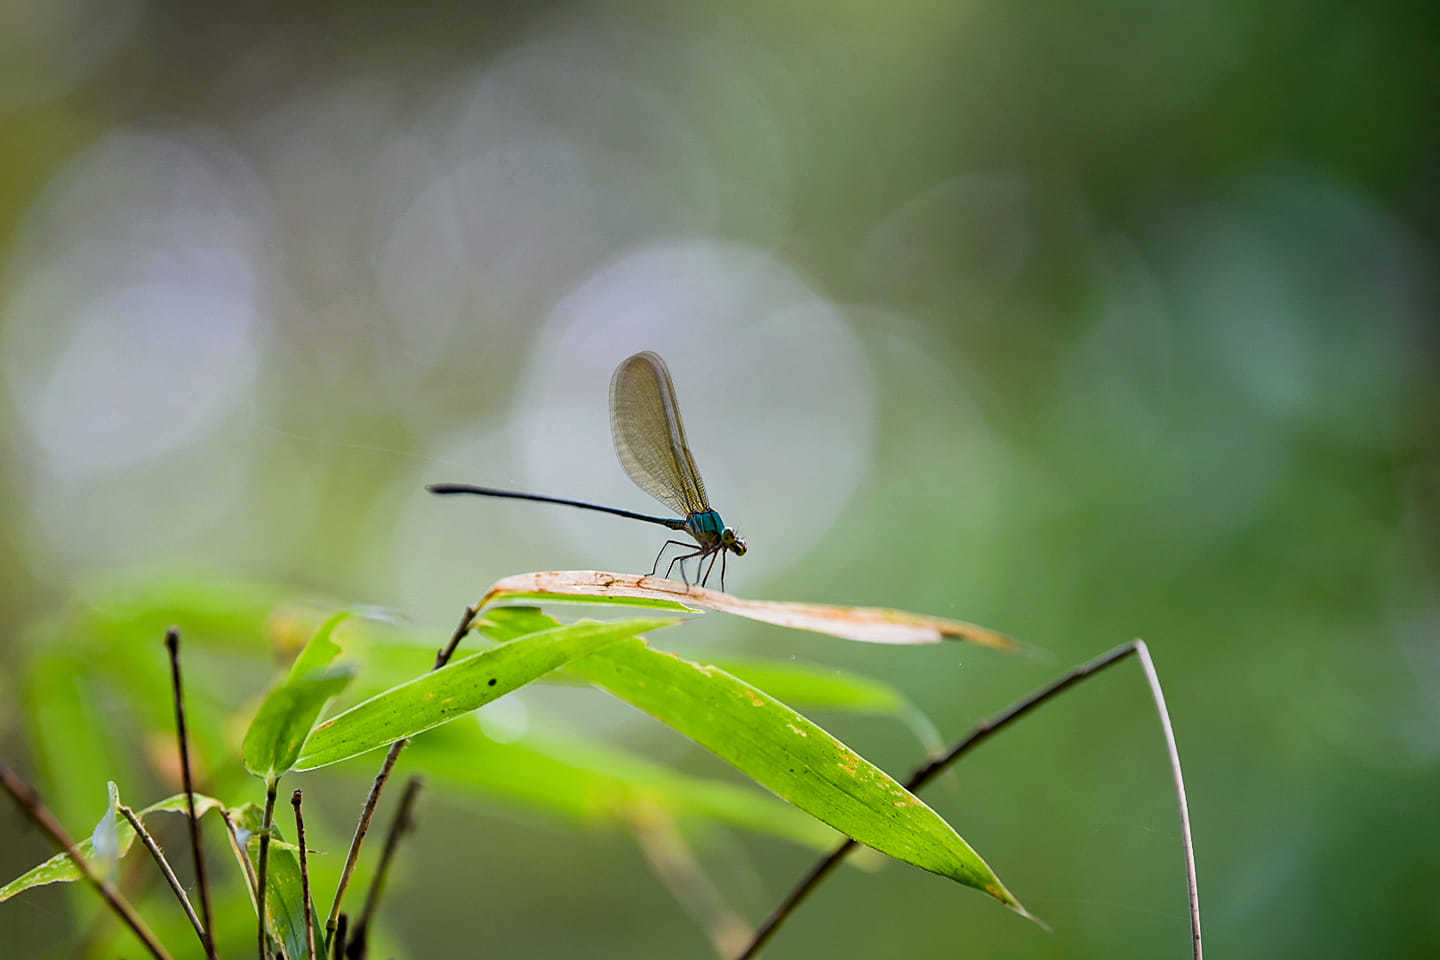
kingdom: Animalia
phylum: Arthropoda
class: Insecta
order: Odonata
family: Calopterygidae
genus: Vestalis
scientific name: Vestalis gracilis
